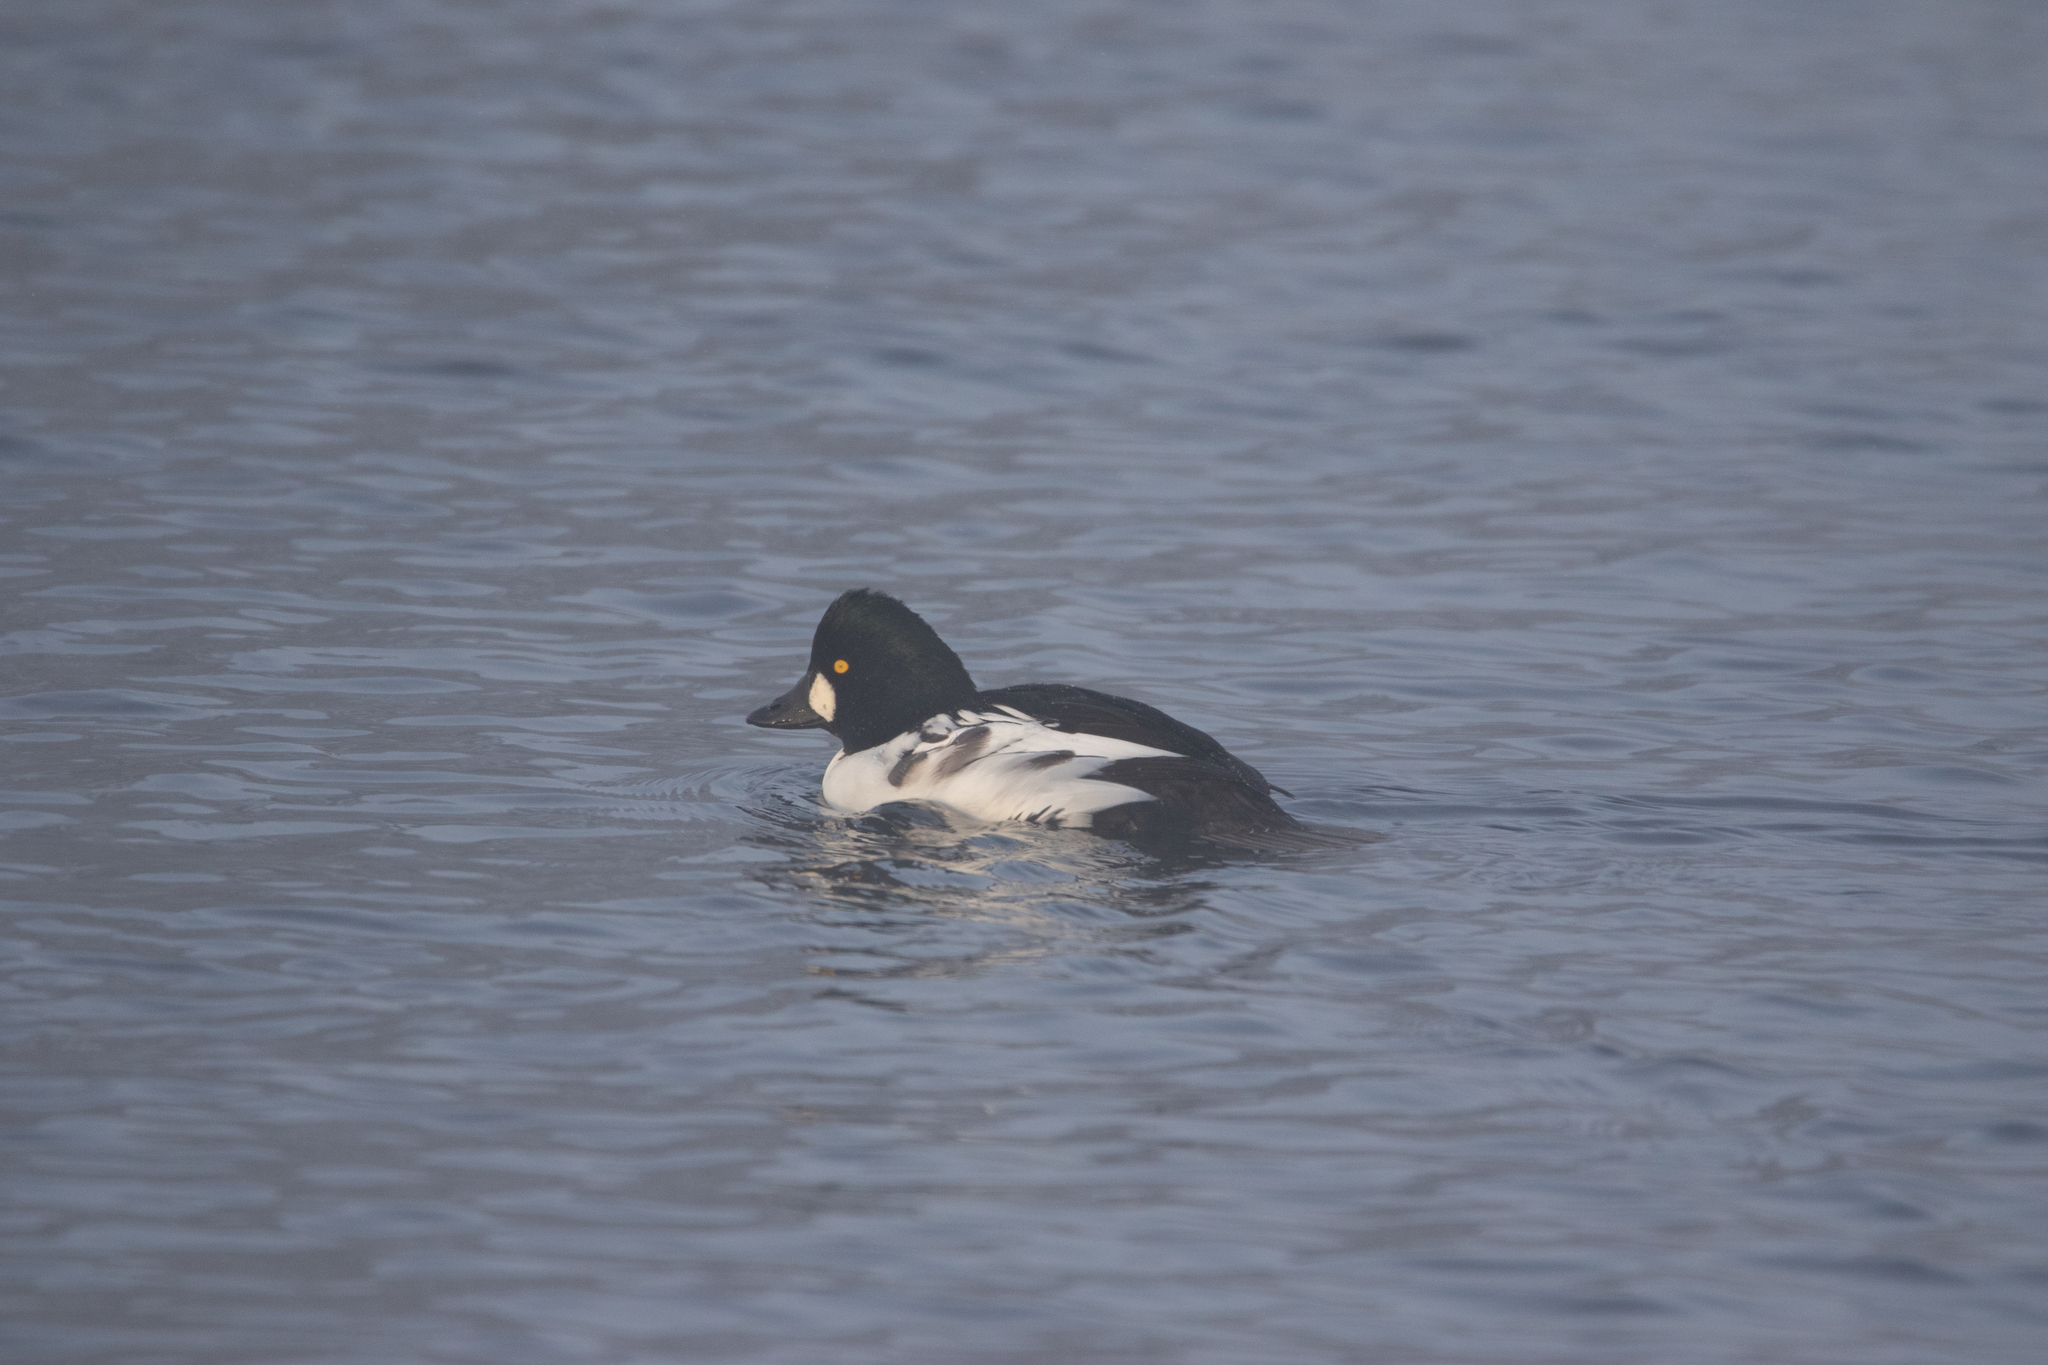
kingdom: Animalia
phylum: Chordata
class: Aves
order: Anseriformes
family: Anatidae
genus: Bucephala
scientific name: Bucephala clangula
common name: Common goldeneye
